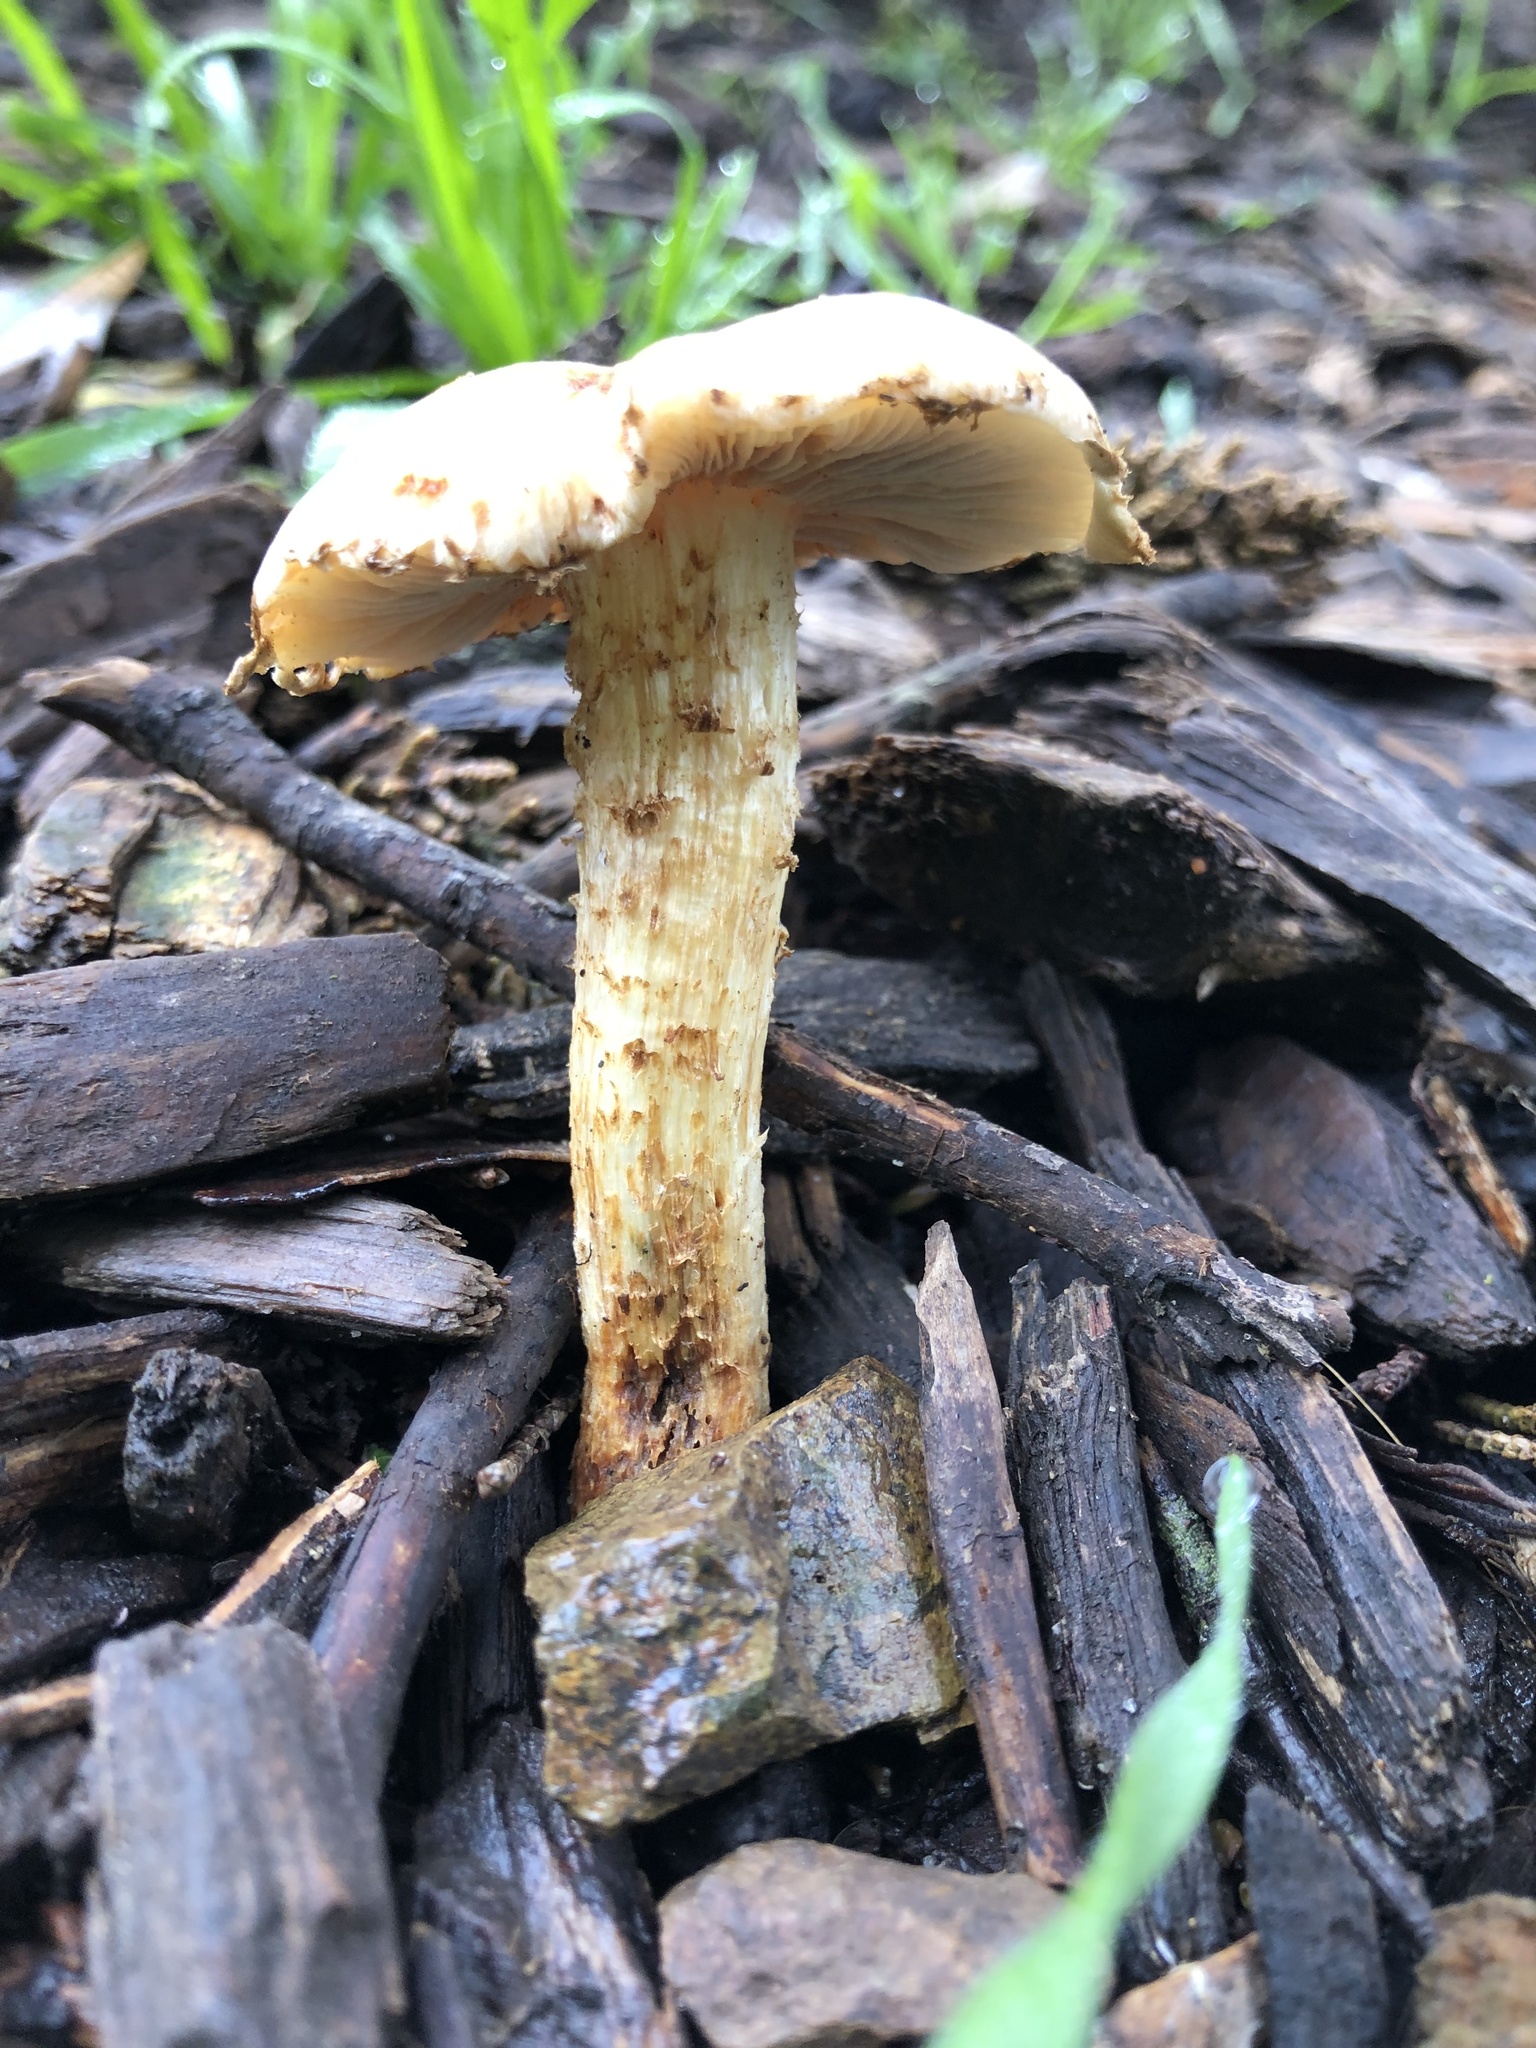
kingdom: Fungi
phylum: Basidiomycota
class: Agaricomycetes
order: Agaricales
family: Strophariaceae
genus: Leratiomyces
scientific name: Leratiomyces percevalii
